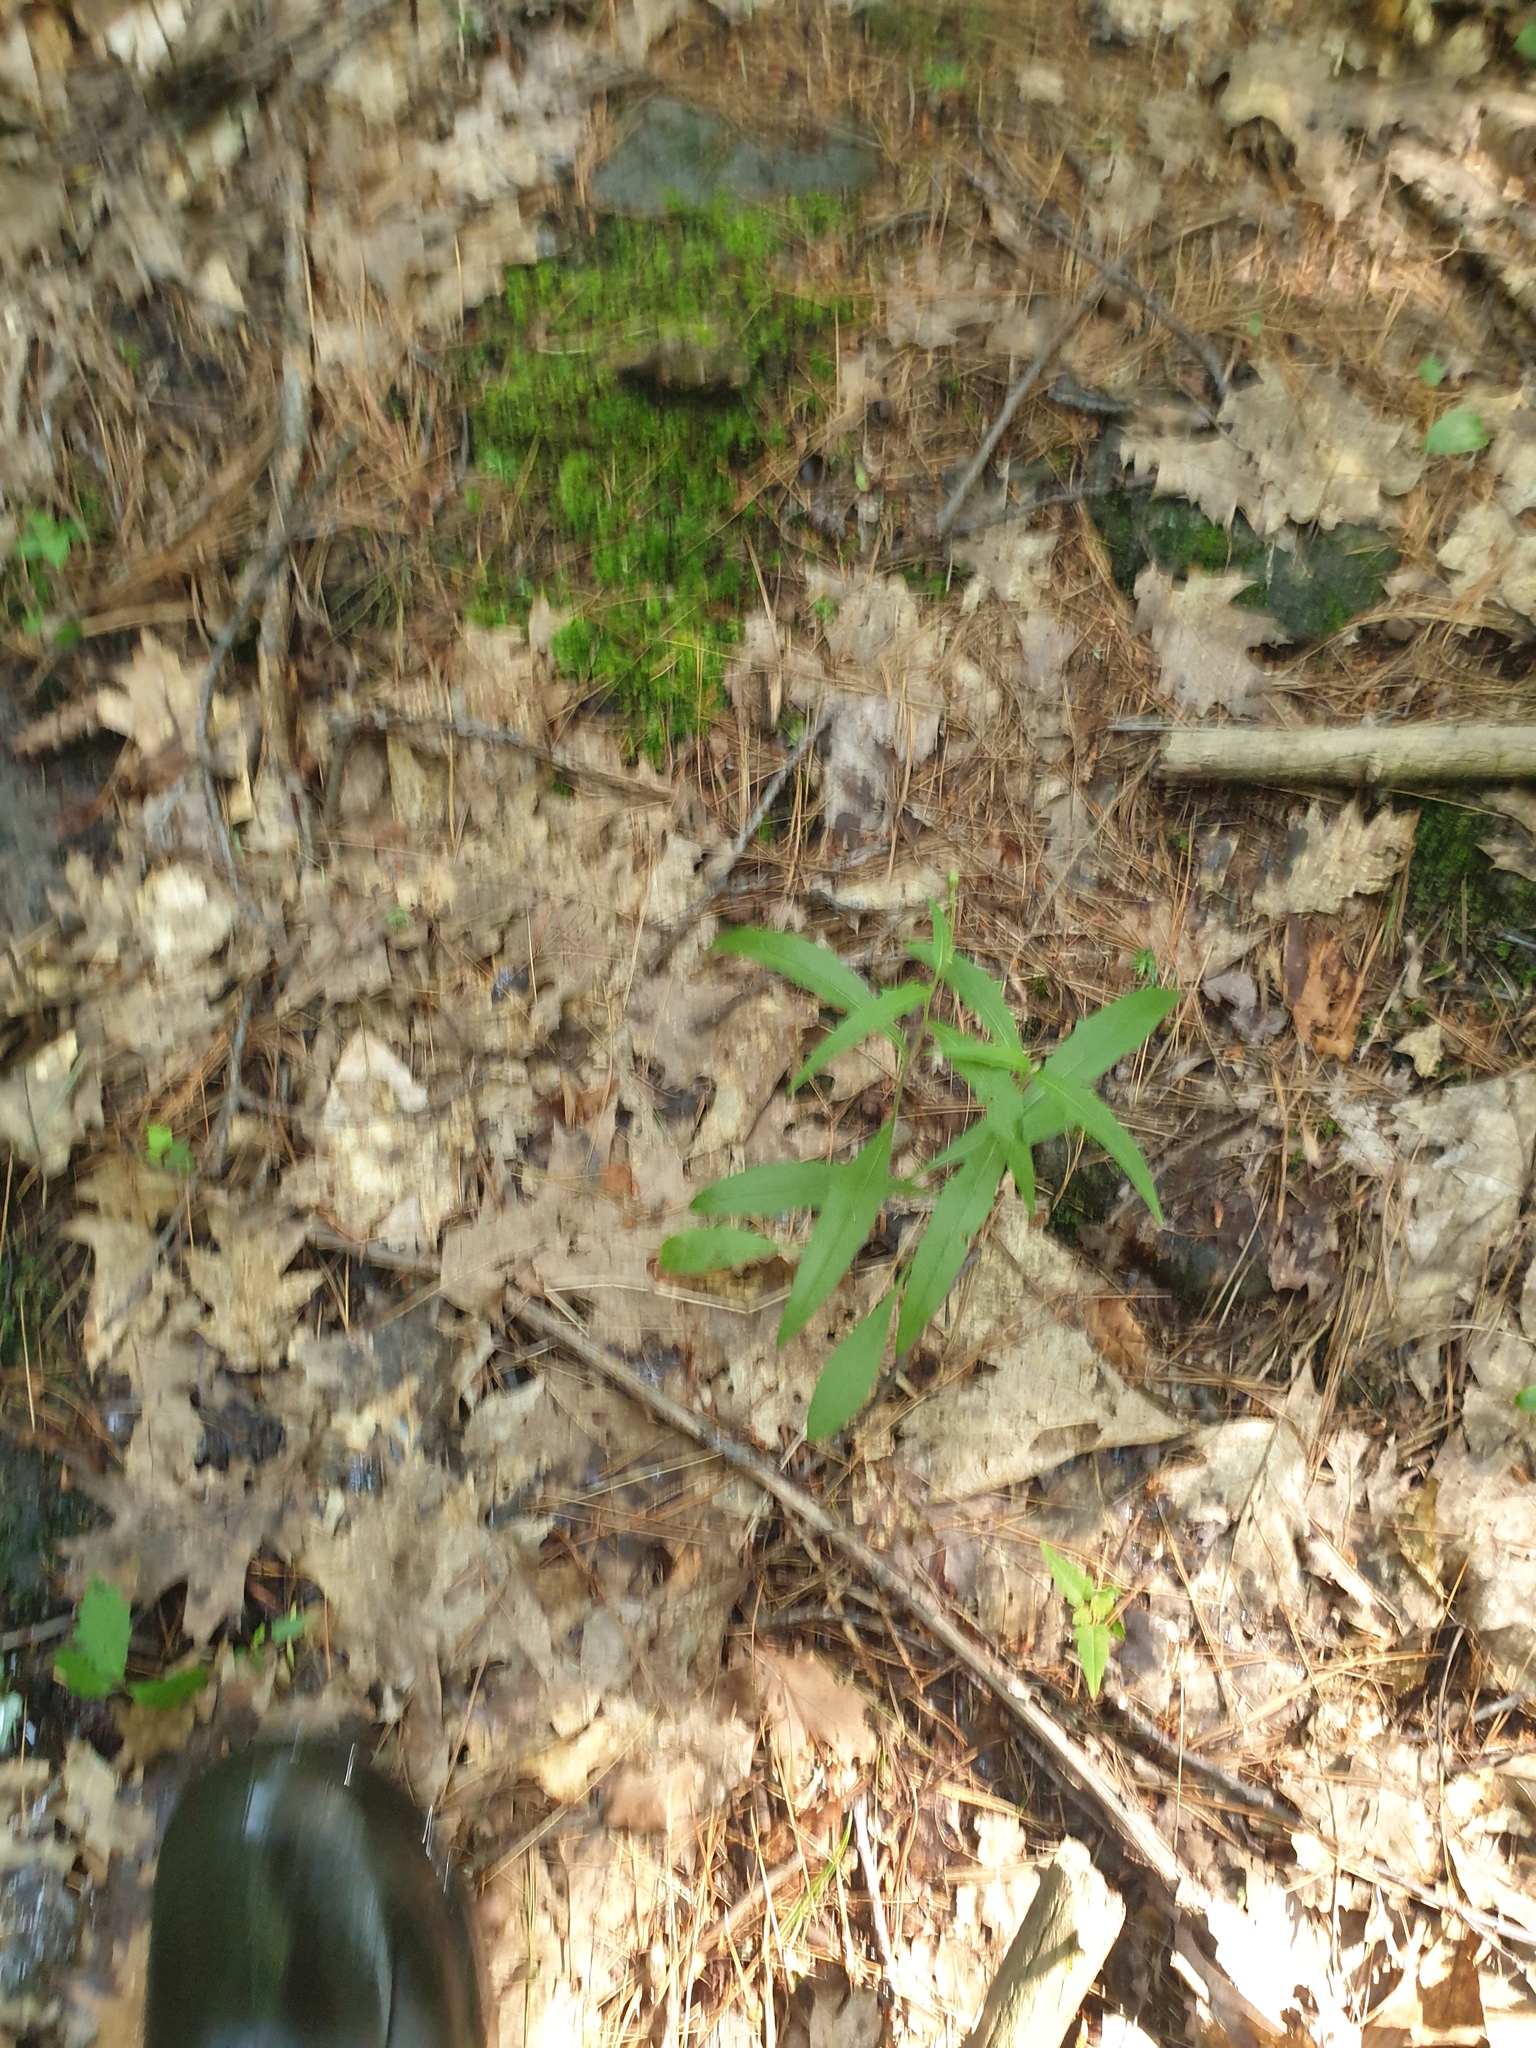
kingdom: Plantae
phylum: Tracheophyta
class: Magnoliopsida
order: Asterales
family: Asteraceae
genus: Hieracium
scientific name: Hieracium tridentatum
